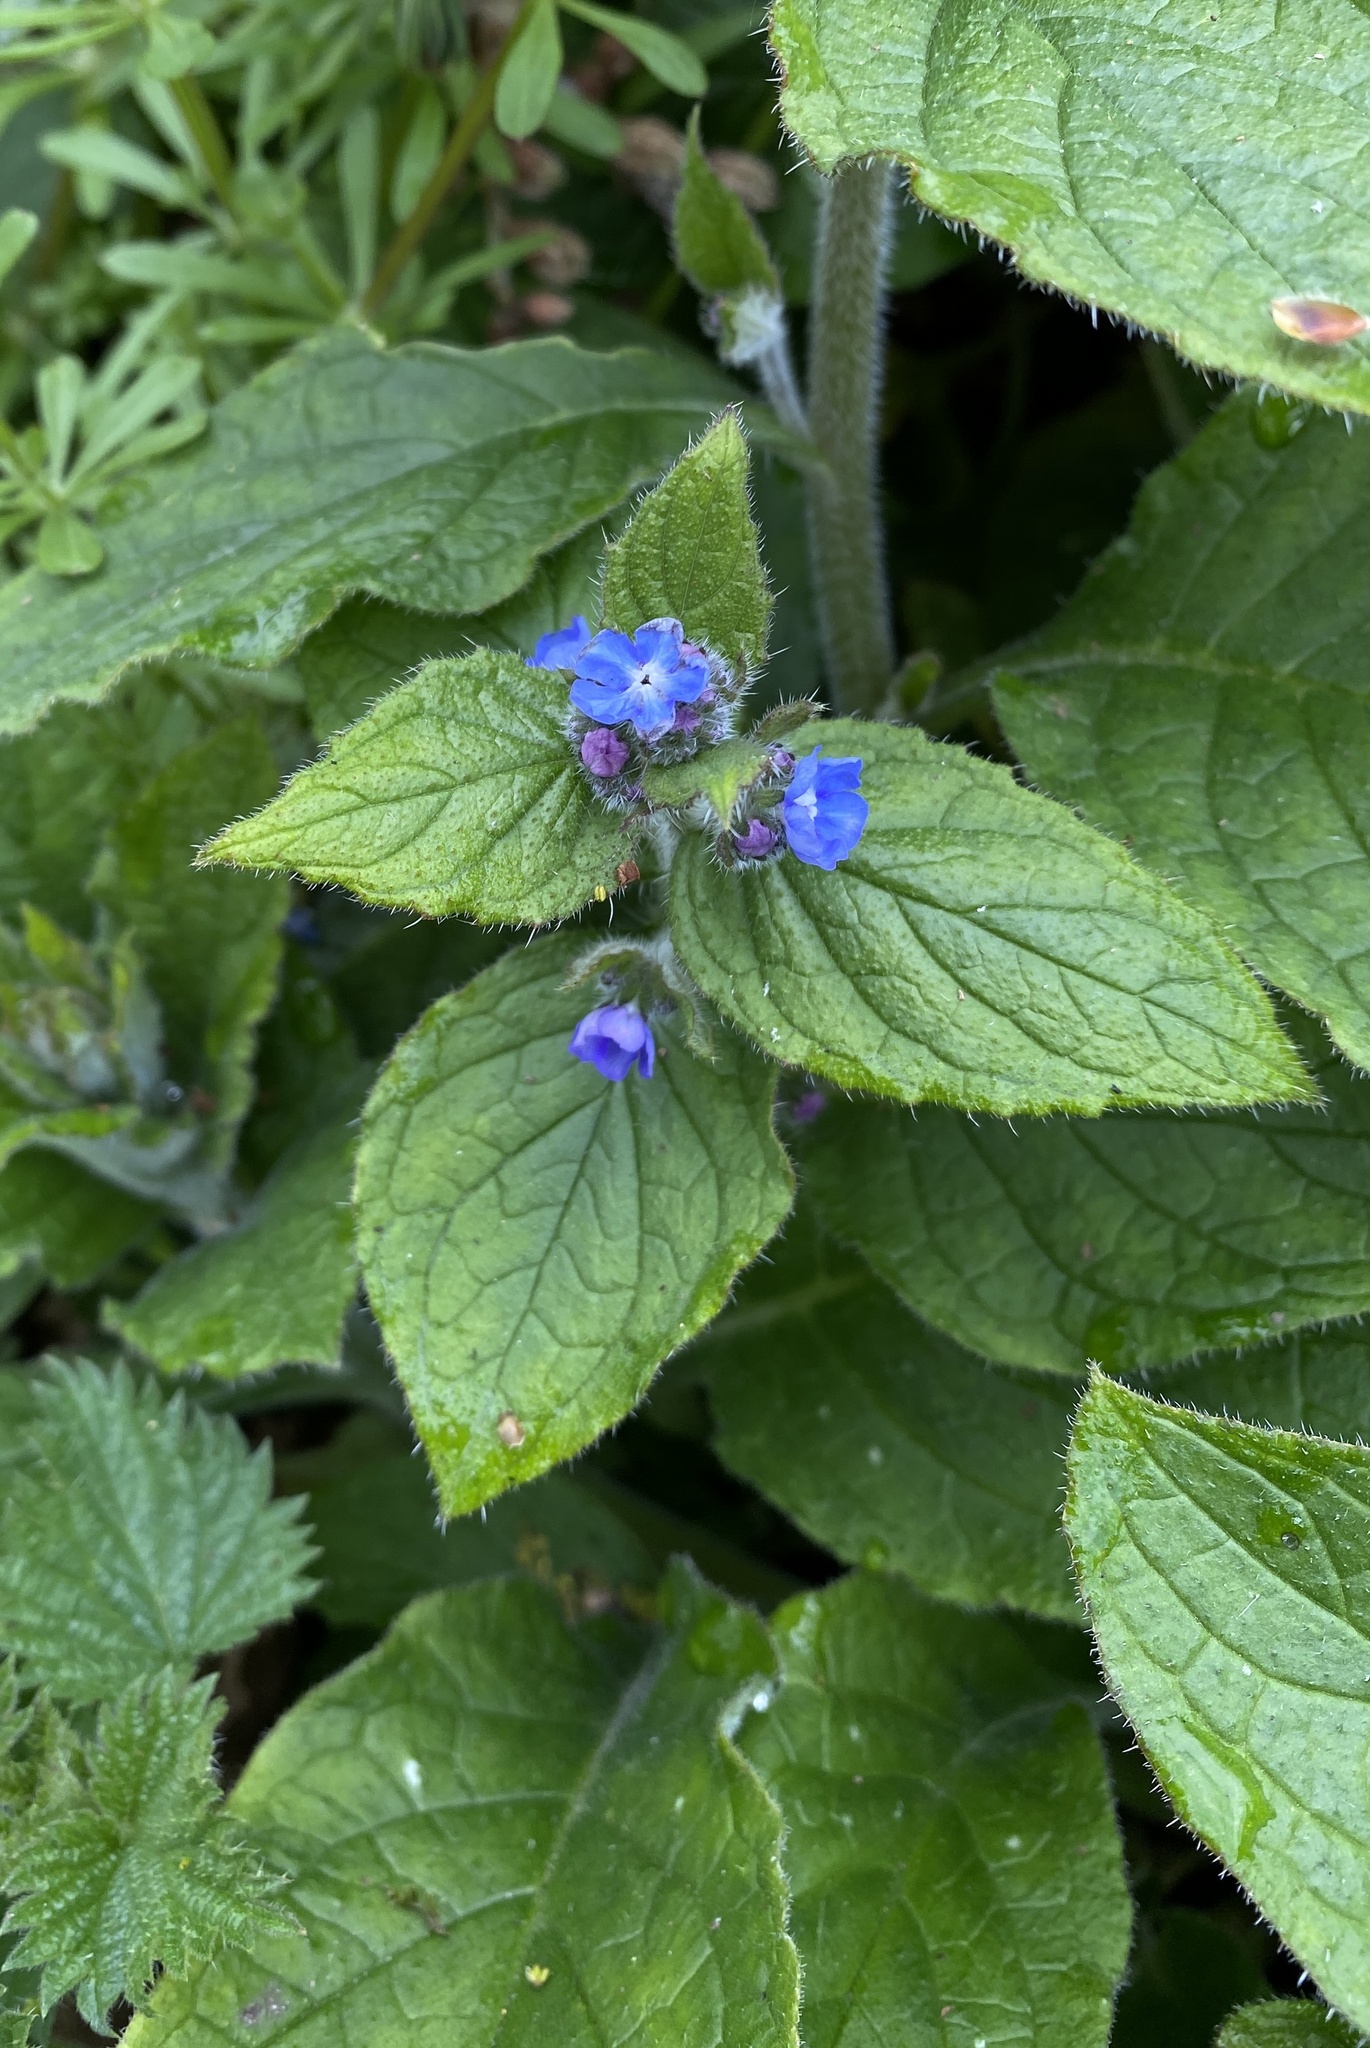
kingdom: Plantae
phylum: Tracheophyta
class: Magnoliopsida
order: Boraginales
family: Boraginaceae
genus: Pentaglottis
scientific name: Pentaglottis sempervirens
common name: Green alkanet
